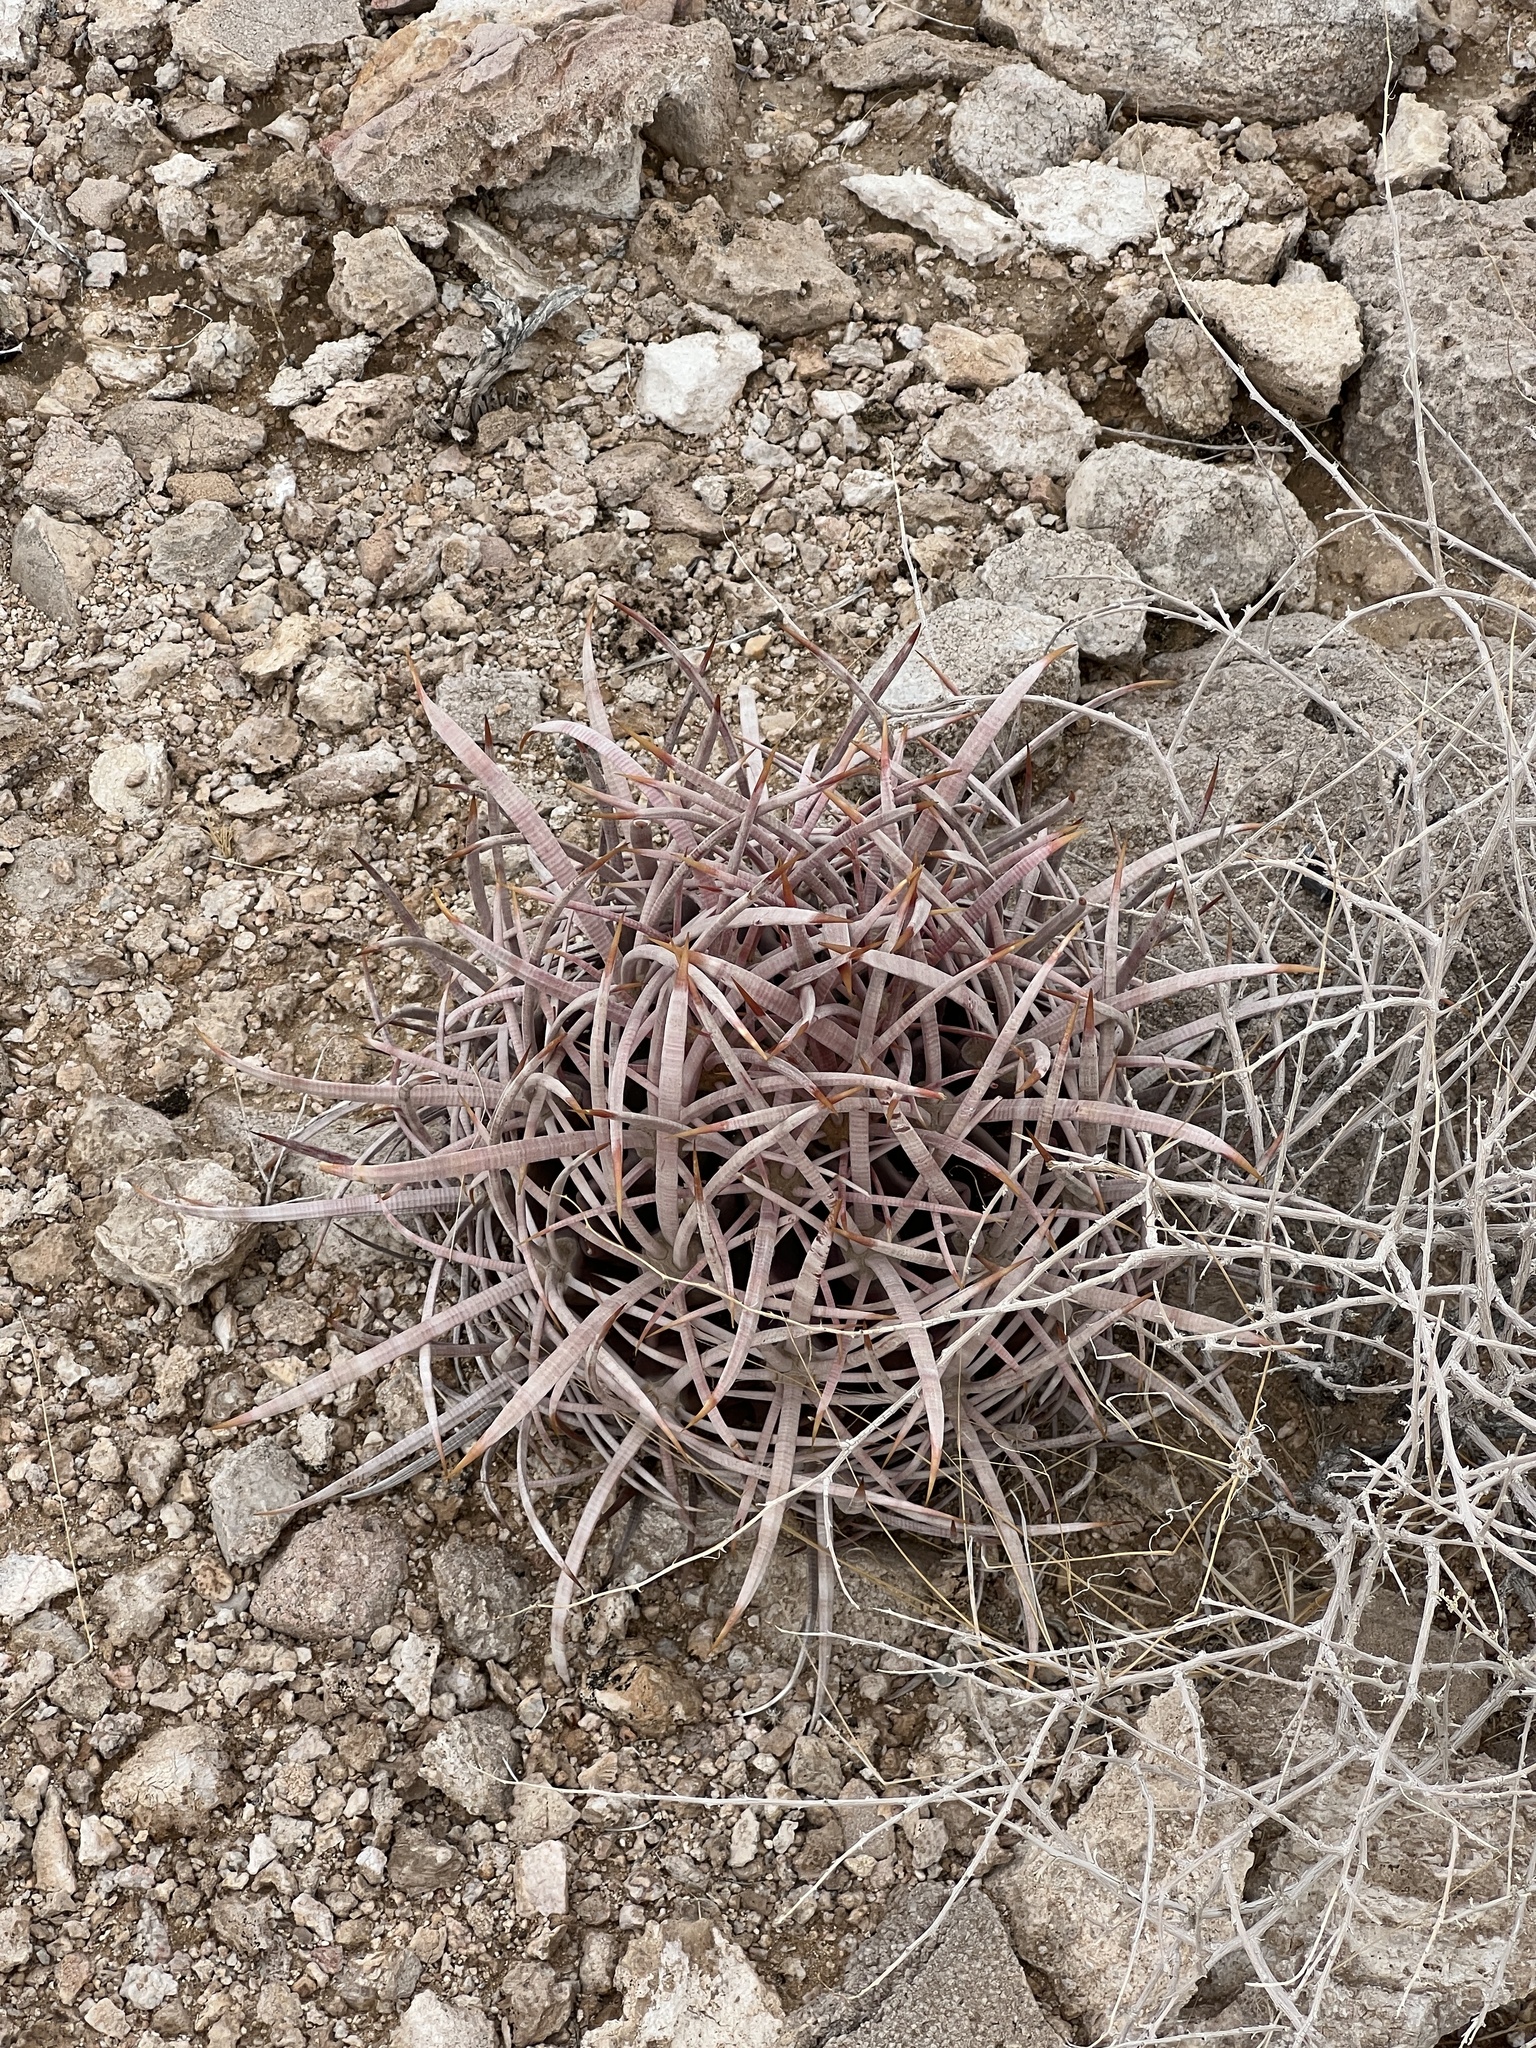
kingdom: Plantae
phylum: Tracheophyta
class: Magnoliopsida
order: Caryophyllales
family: Cactaceae
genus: Echinocactus
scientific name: Echinocactus polycephalus
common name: Cottontop cactus
